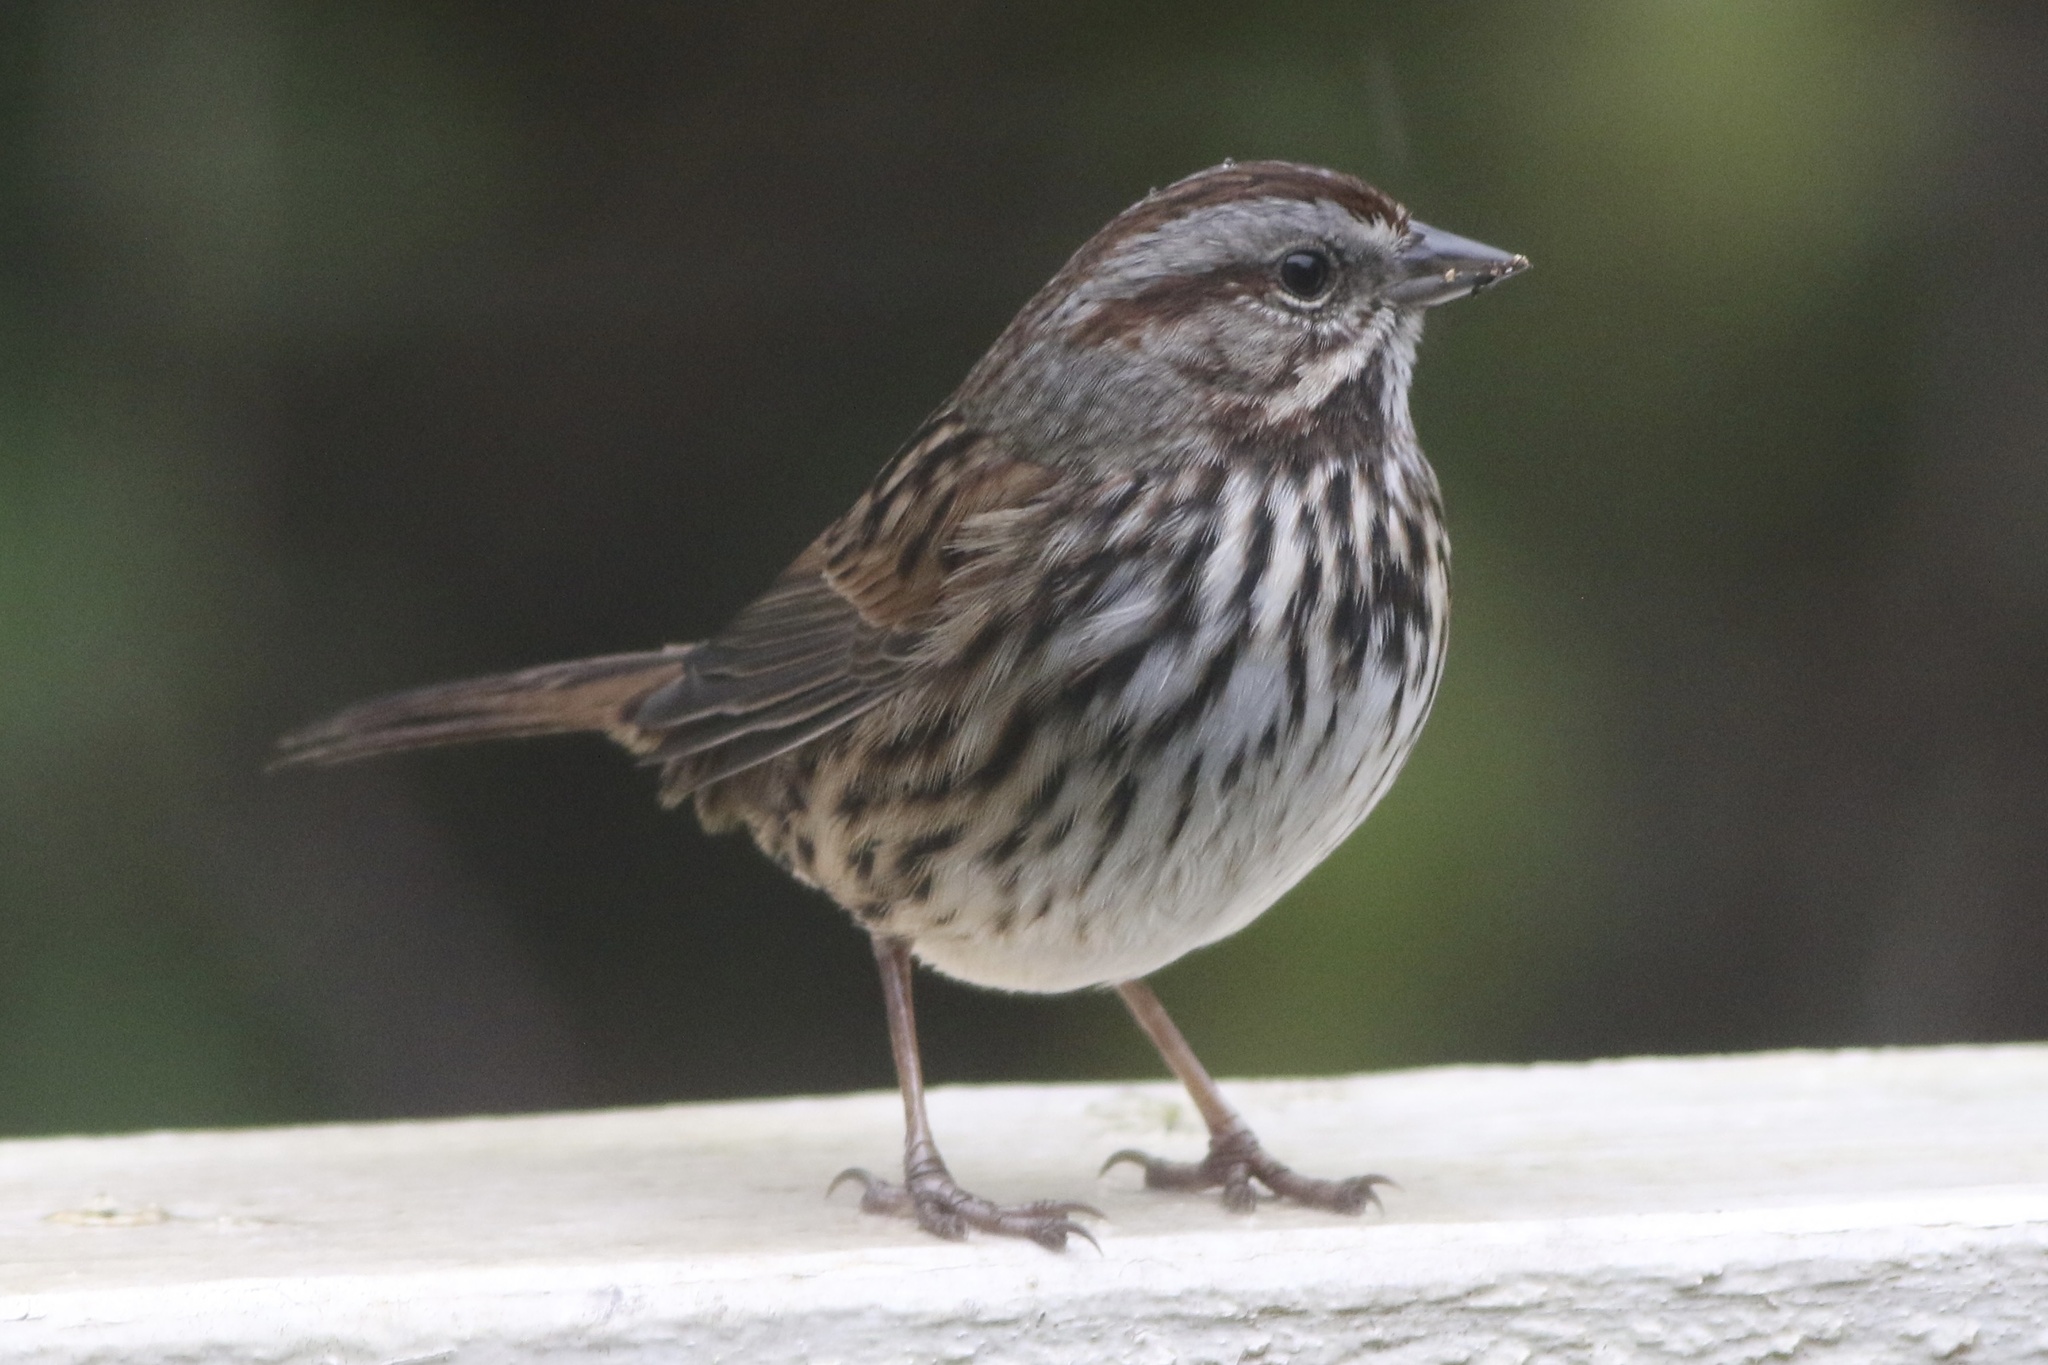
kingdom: Animalia
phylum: Chordata
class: Aves
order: Passeriformes
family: Passerellidae
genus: Melospiza
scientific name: Melospiza melodia
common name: Song sparrow
